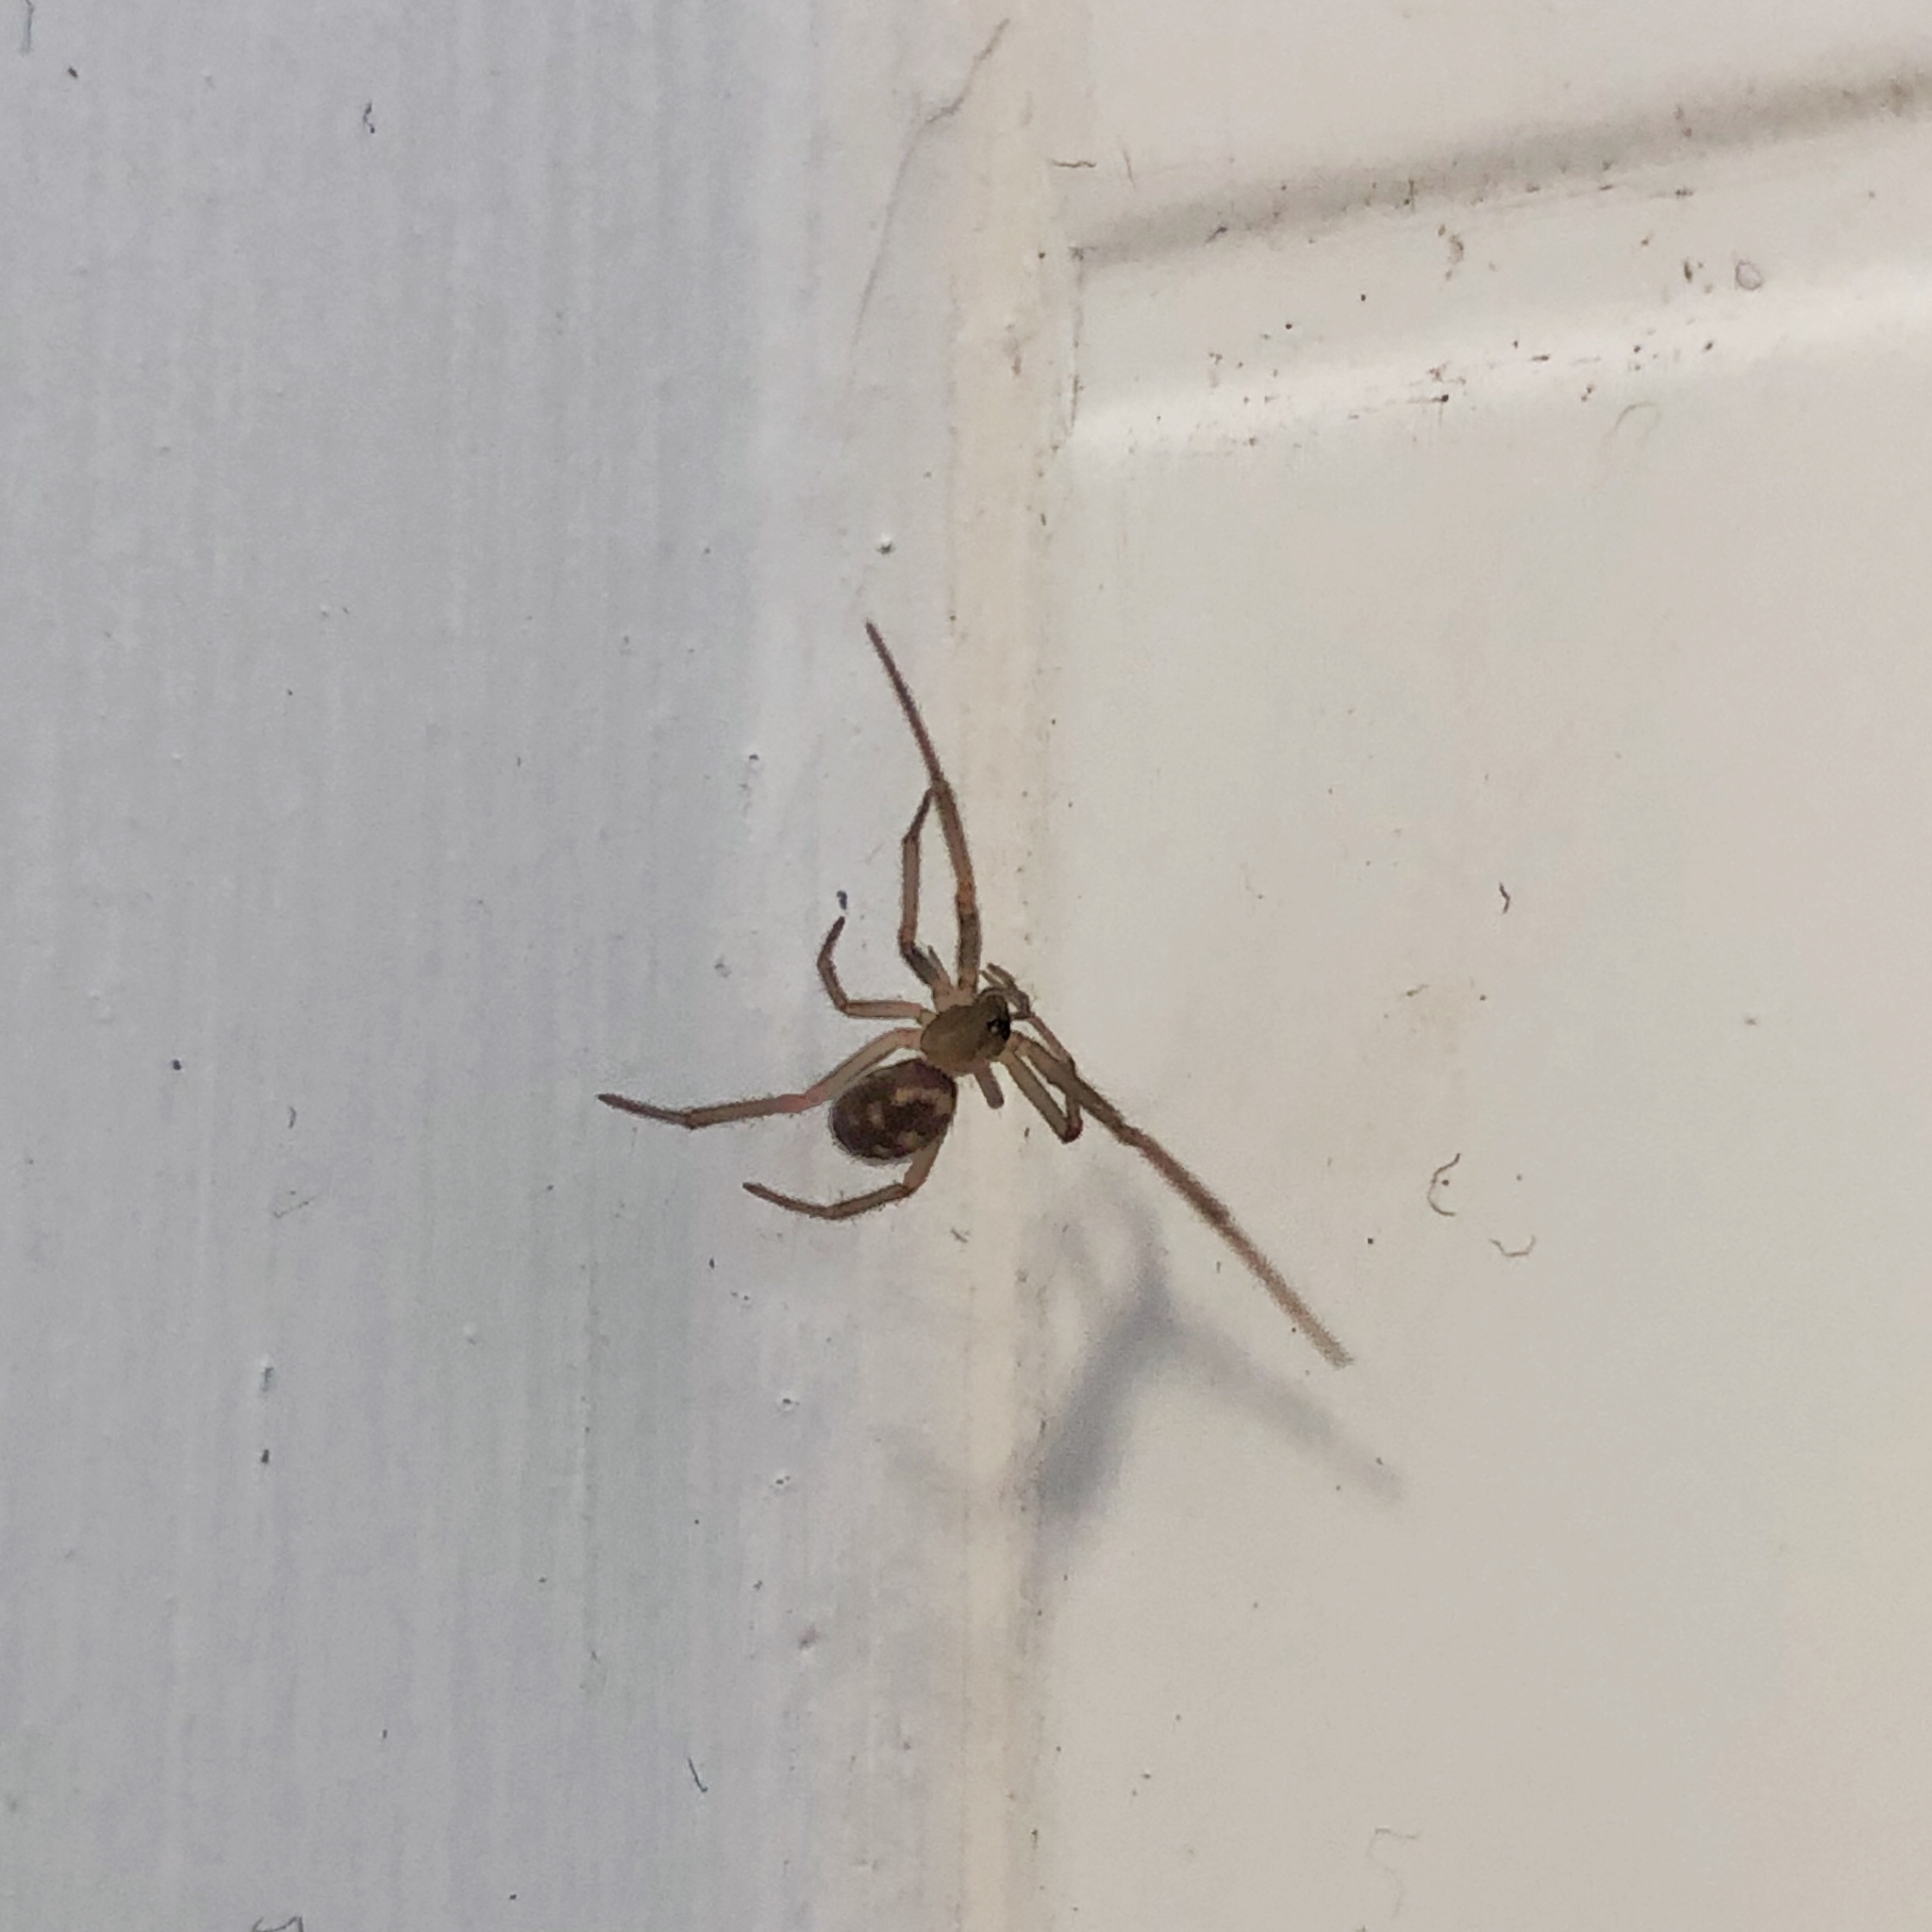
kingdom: Animalia
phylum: Arthropoda
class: Arachnida
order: Araneae
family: Theridiidae
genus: Steatoda
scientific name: Steatoda grossa
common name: False black widow
